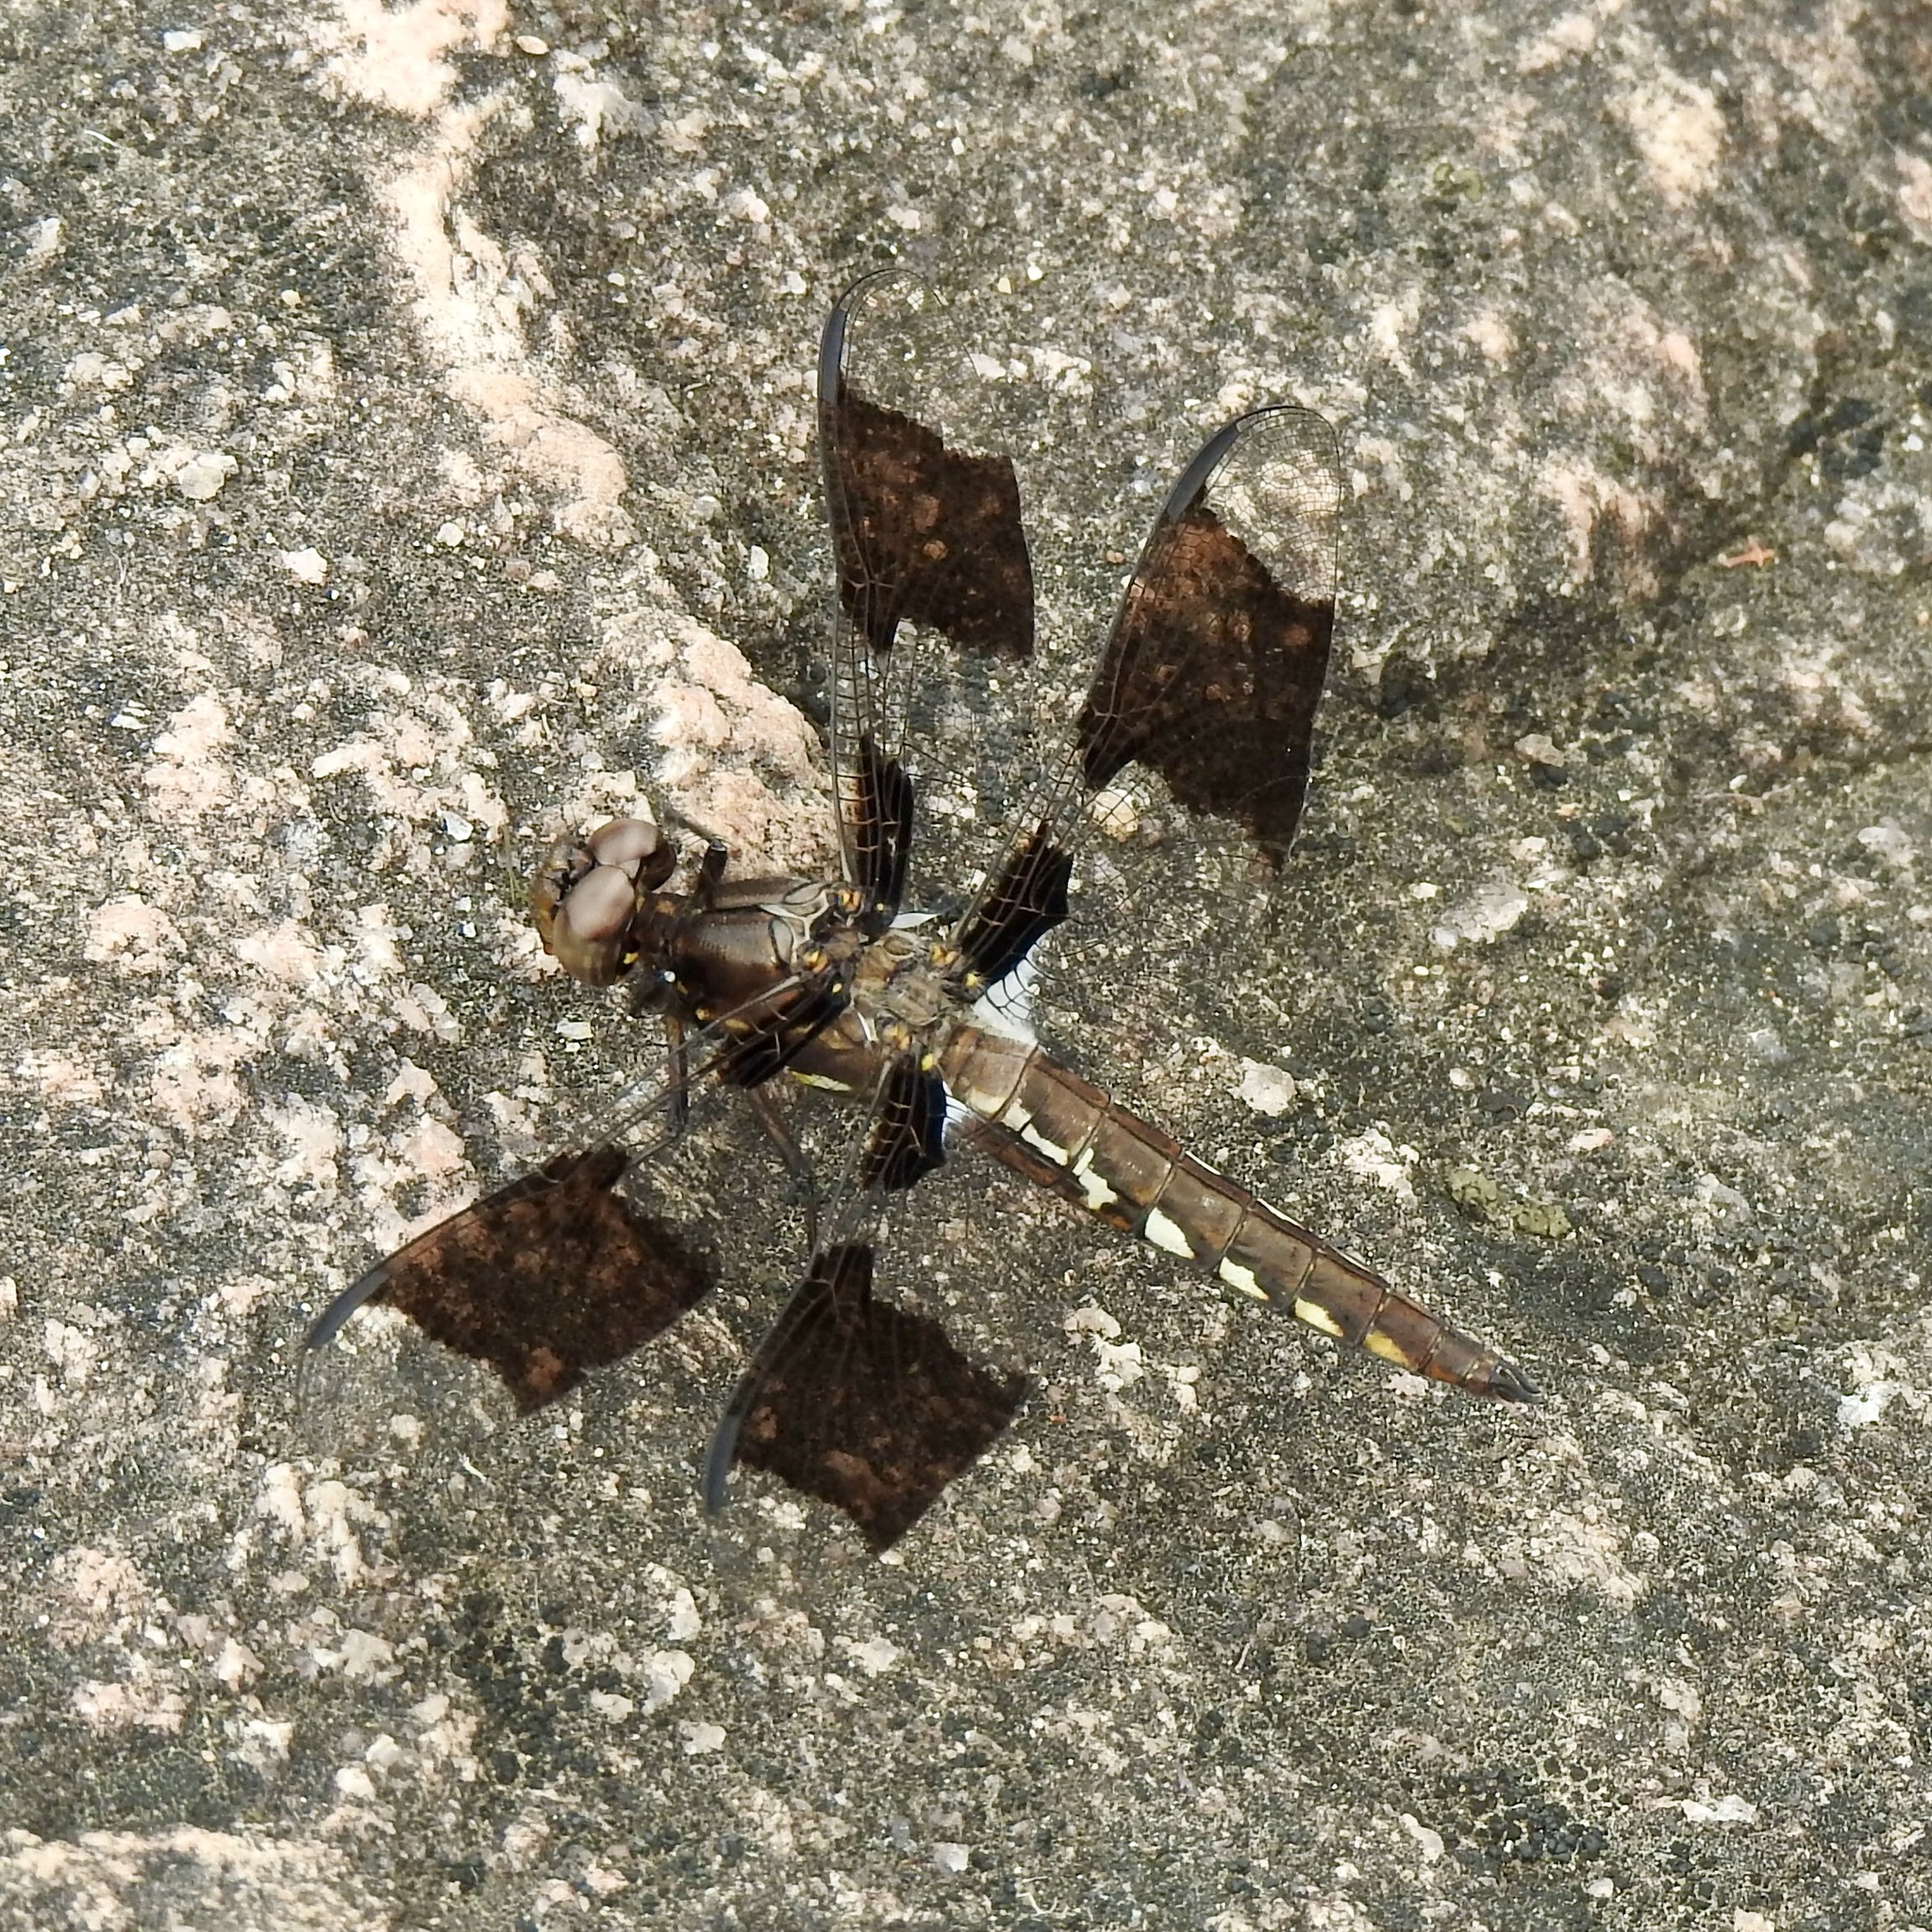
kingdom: Animalia
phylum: Arthropoda
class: Insecta
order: Odonata
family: Libellulidae
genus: Plathemis
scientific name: Plathemis lydia
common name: Common whitetail
